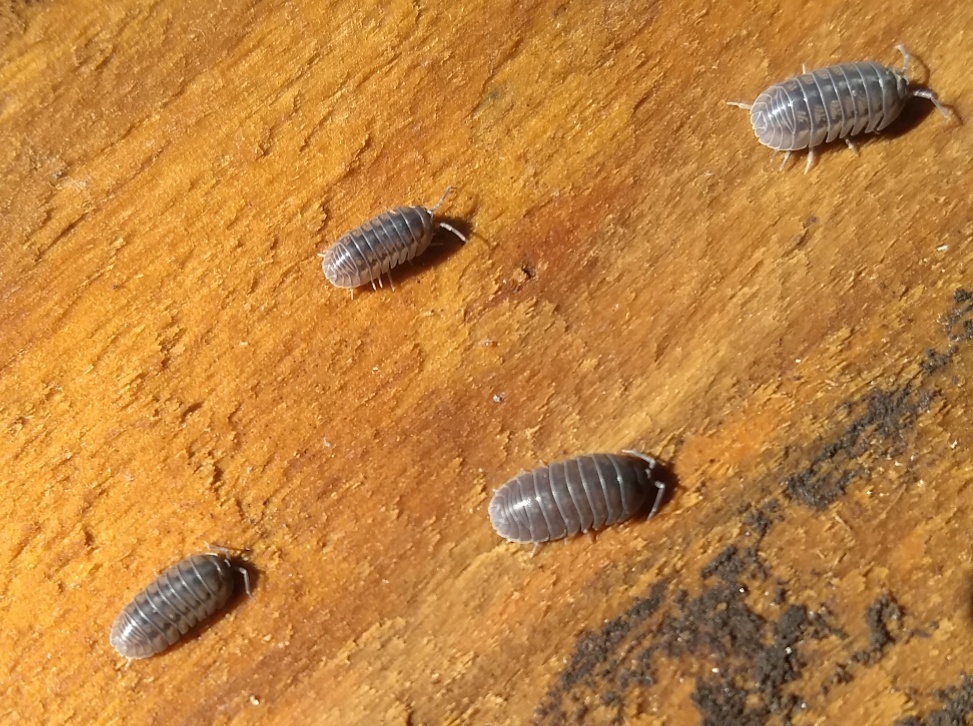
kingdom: Animalia
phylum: Arthropoda
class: Malacostraca
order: Isopoda
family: Armadillidiidae
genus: Armadillidium
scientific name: Armadillidium nasatum
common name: Isopod
